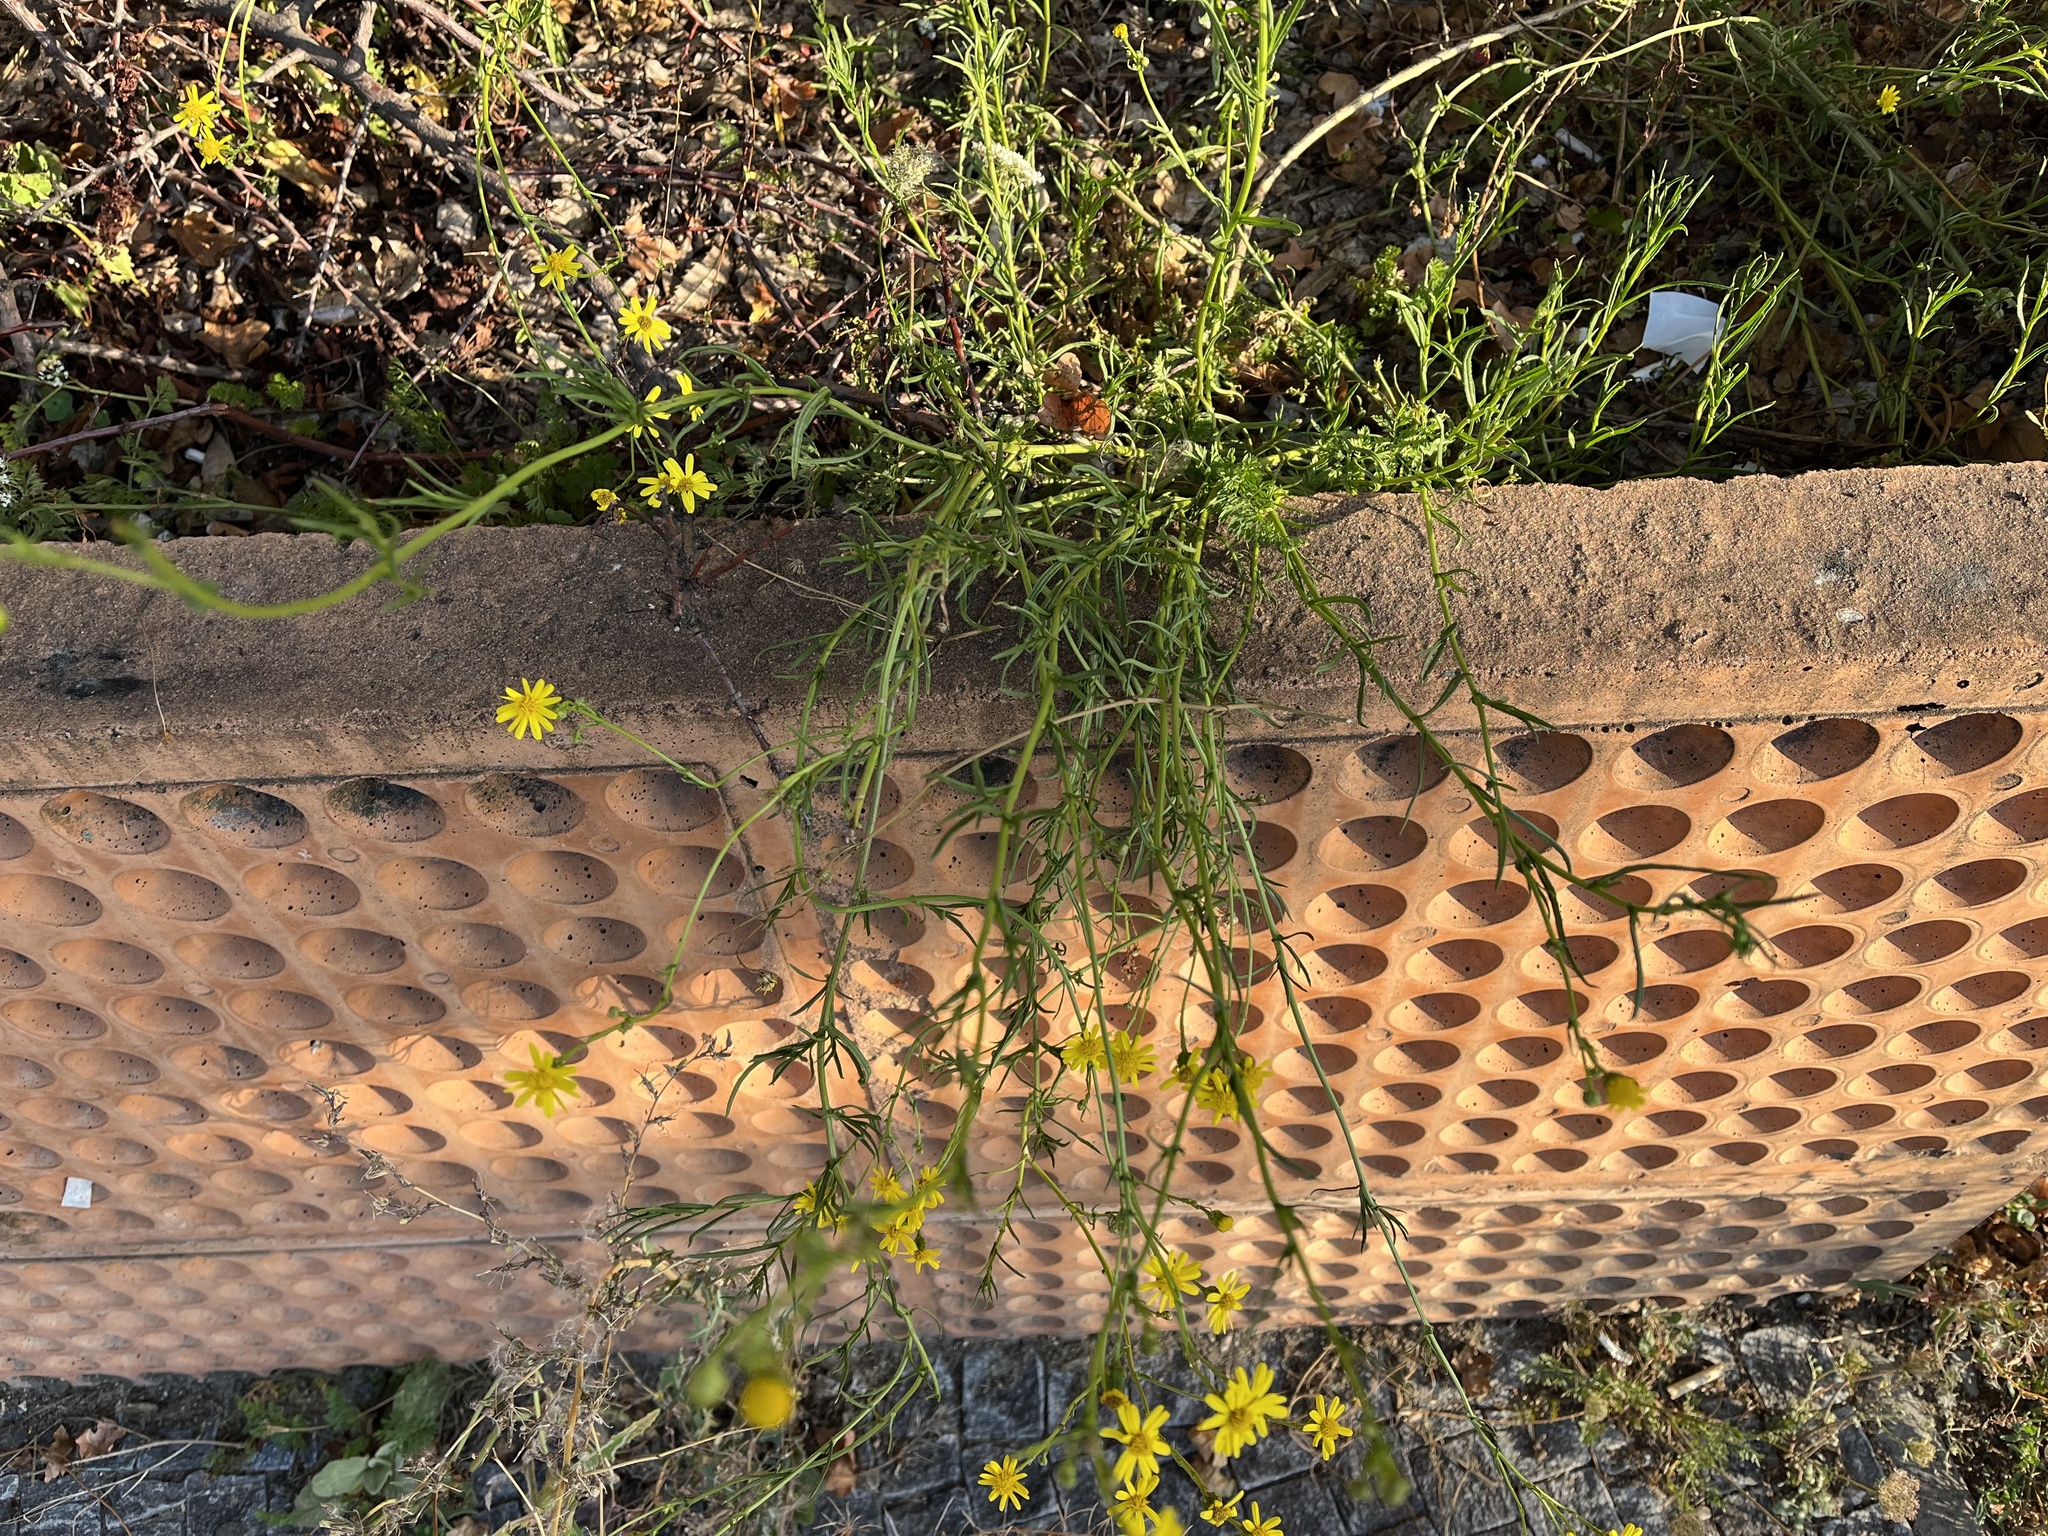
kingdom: Plantae
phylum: Tracheophyta
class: Magnoliopsida
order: Asterales
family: Asteraceae
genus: Senecio
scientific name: Senecio inaequidens
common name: Narrow-leaved ragwort
